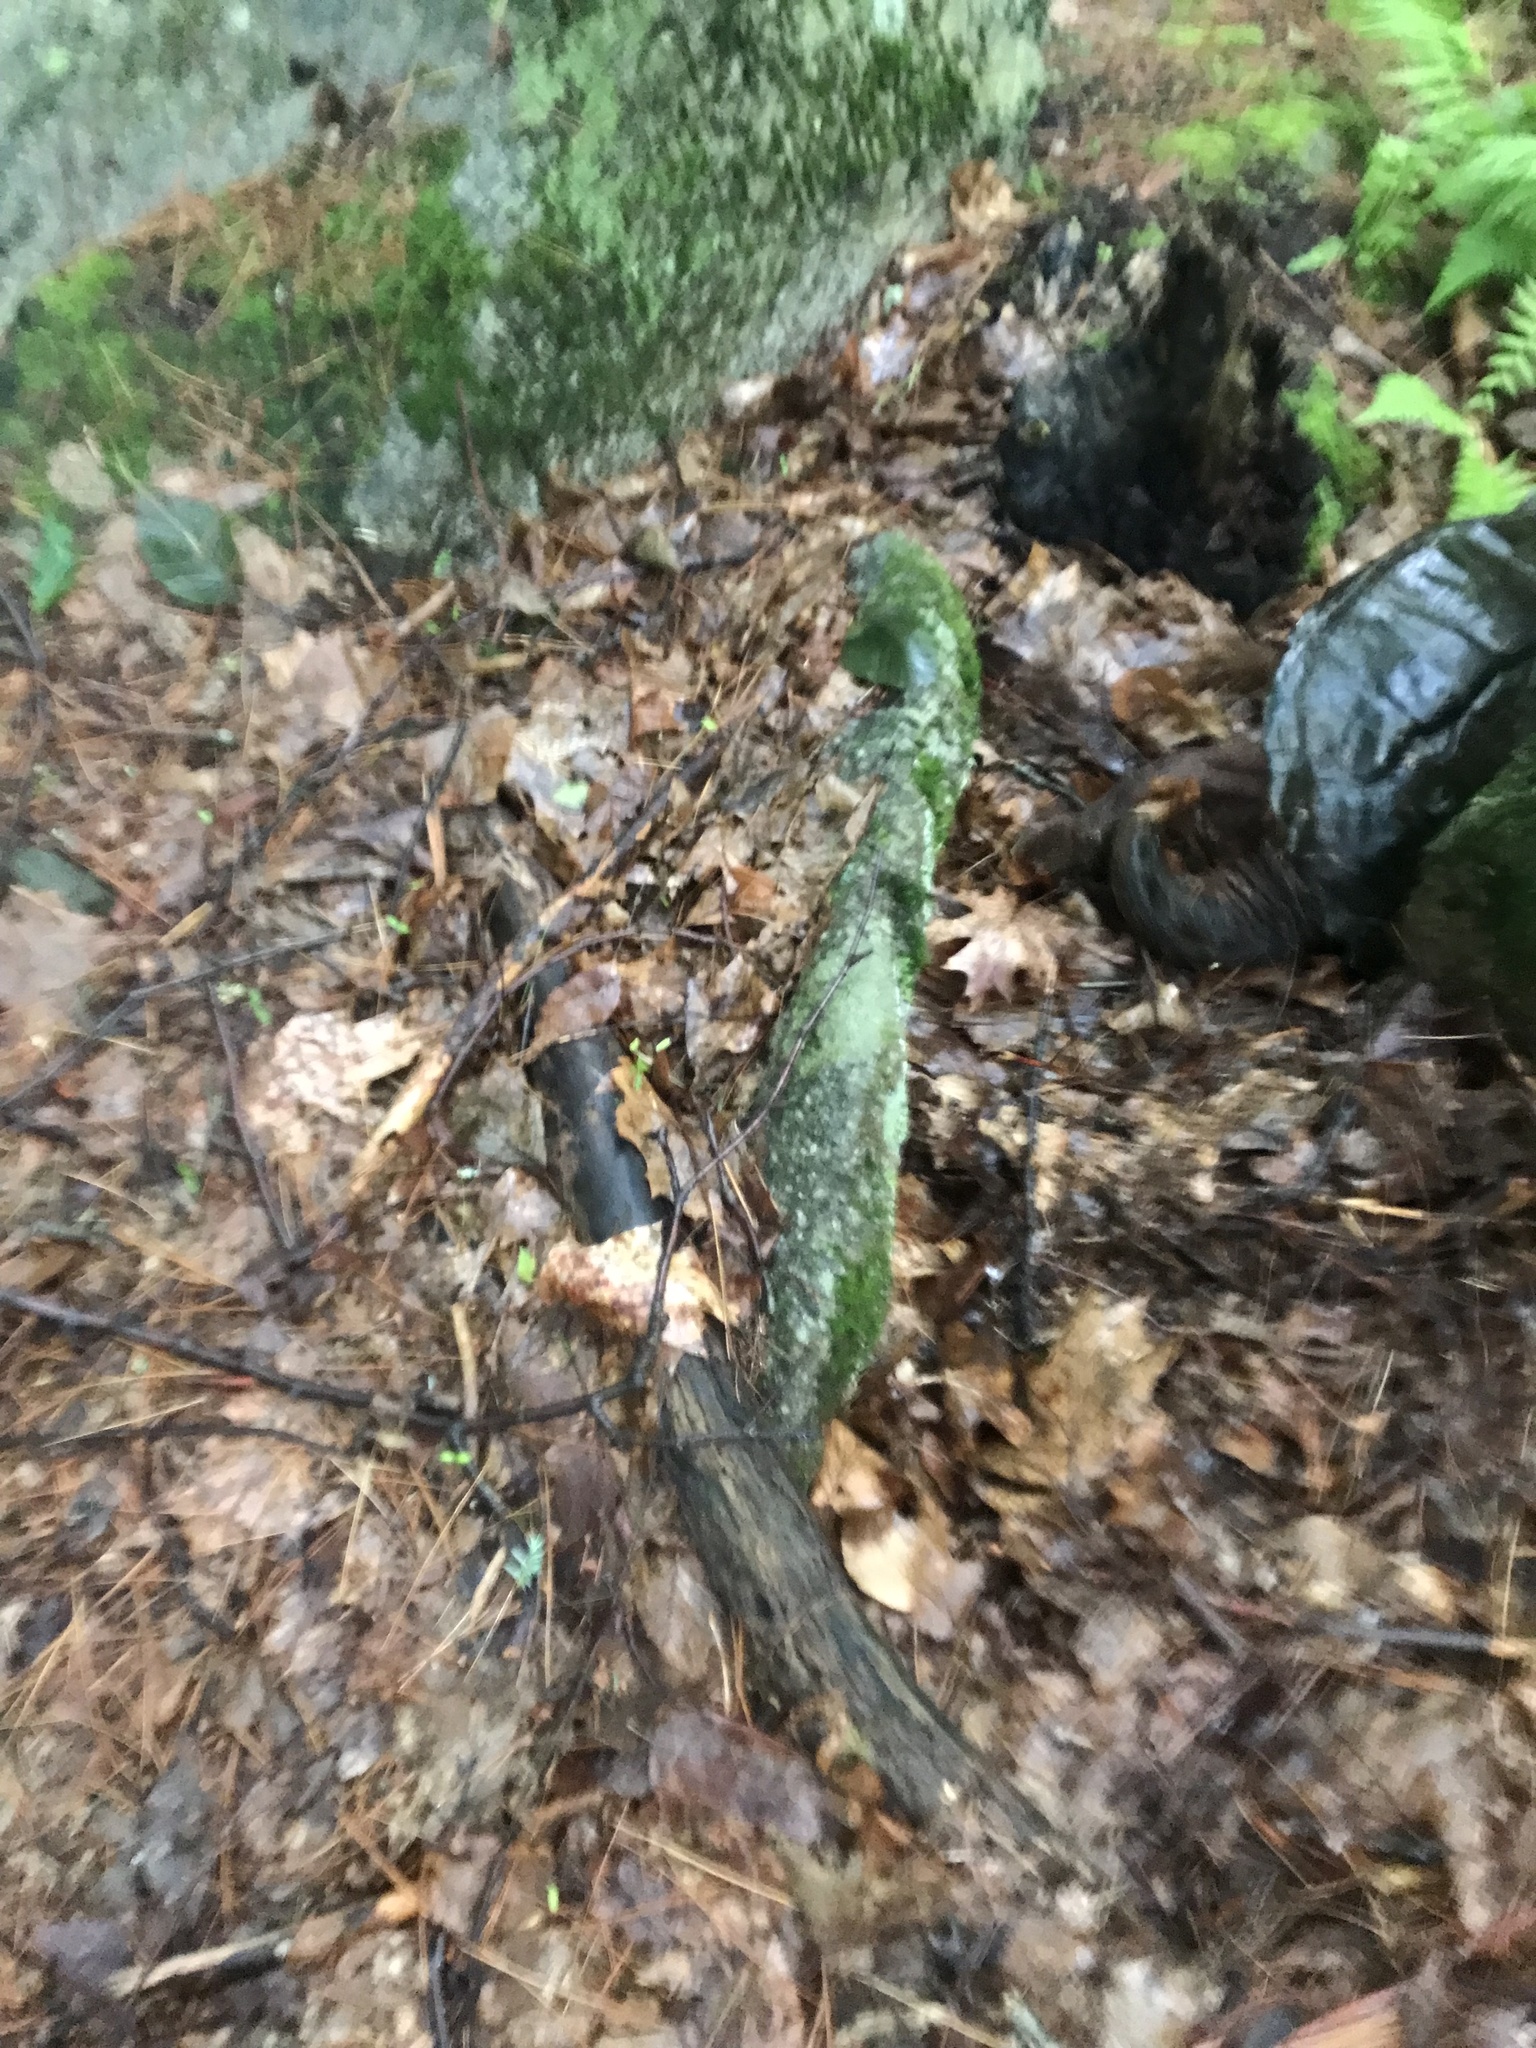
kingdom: Animalia
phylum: Chordata
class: Testudines
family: Chelydridae
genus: Chelydra
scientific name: Chelydra serpentina
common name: Common snapping turtle
